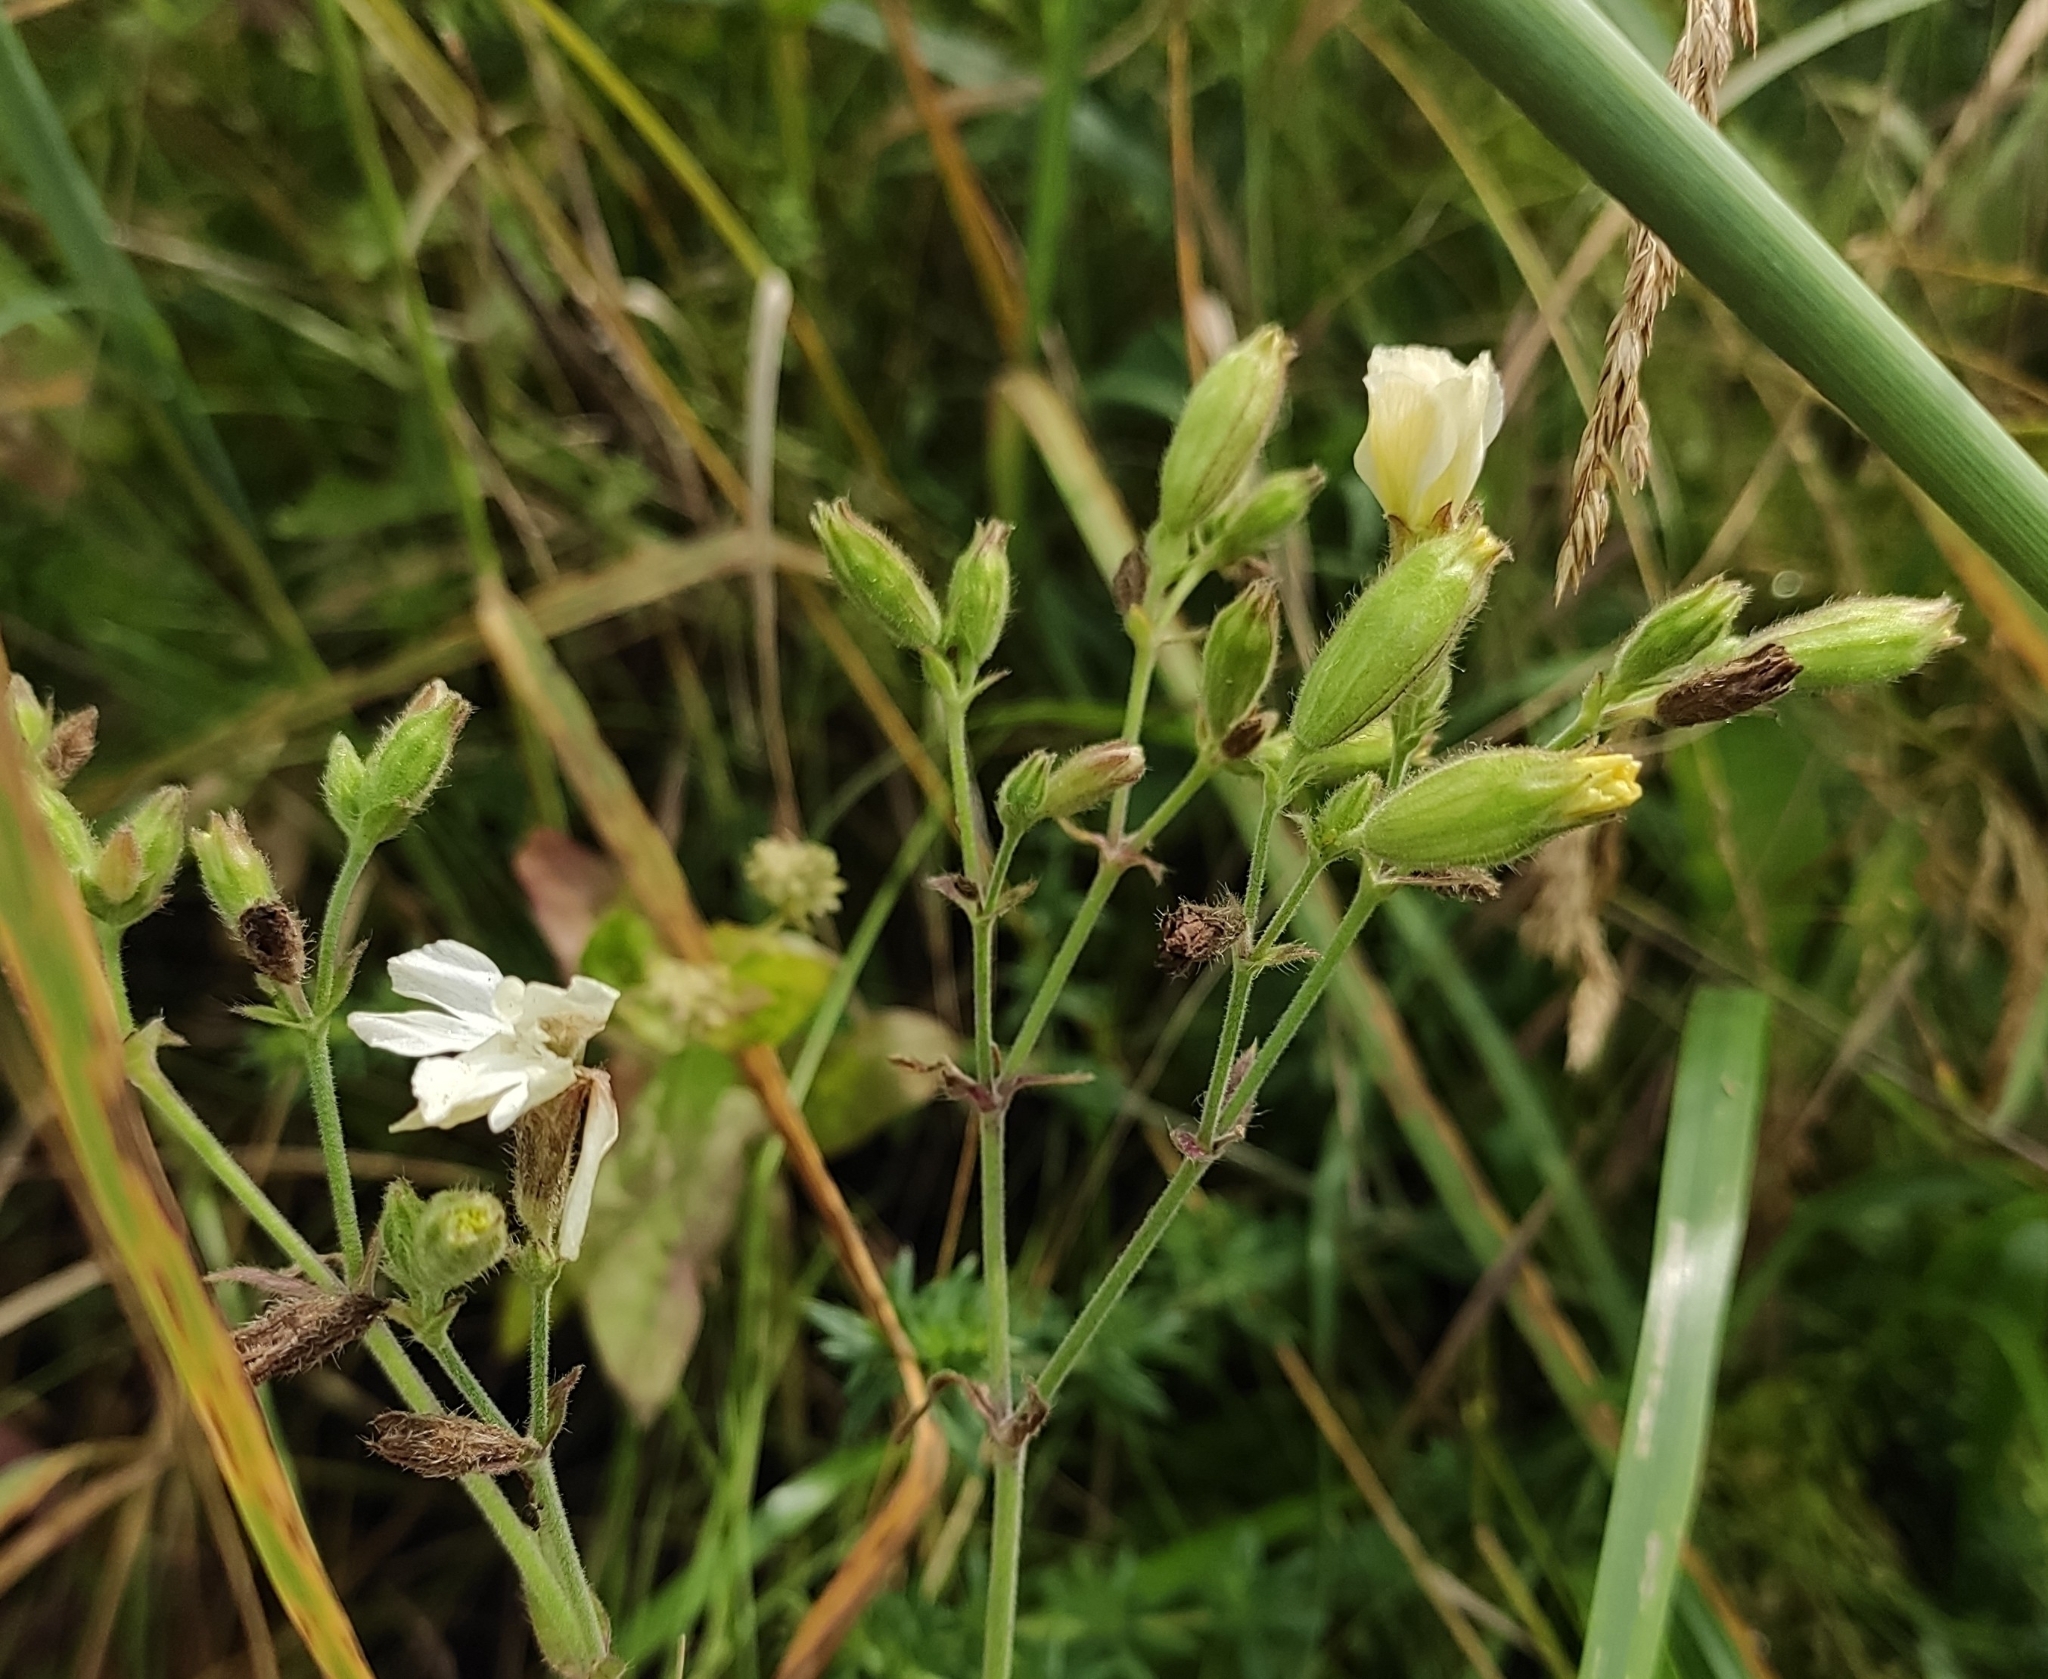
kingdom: Plantae
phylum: Tracheophyta
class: Magnoliopsida
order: Caryophyllales
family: Caryophyllaceae
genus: Silene
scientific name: Silene latifolia
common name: White campion
